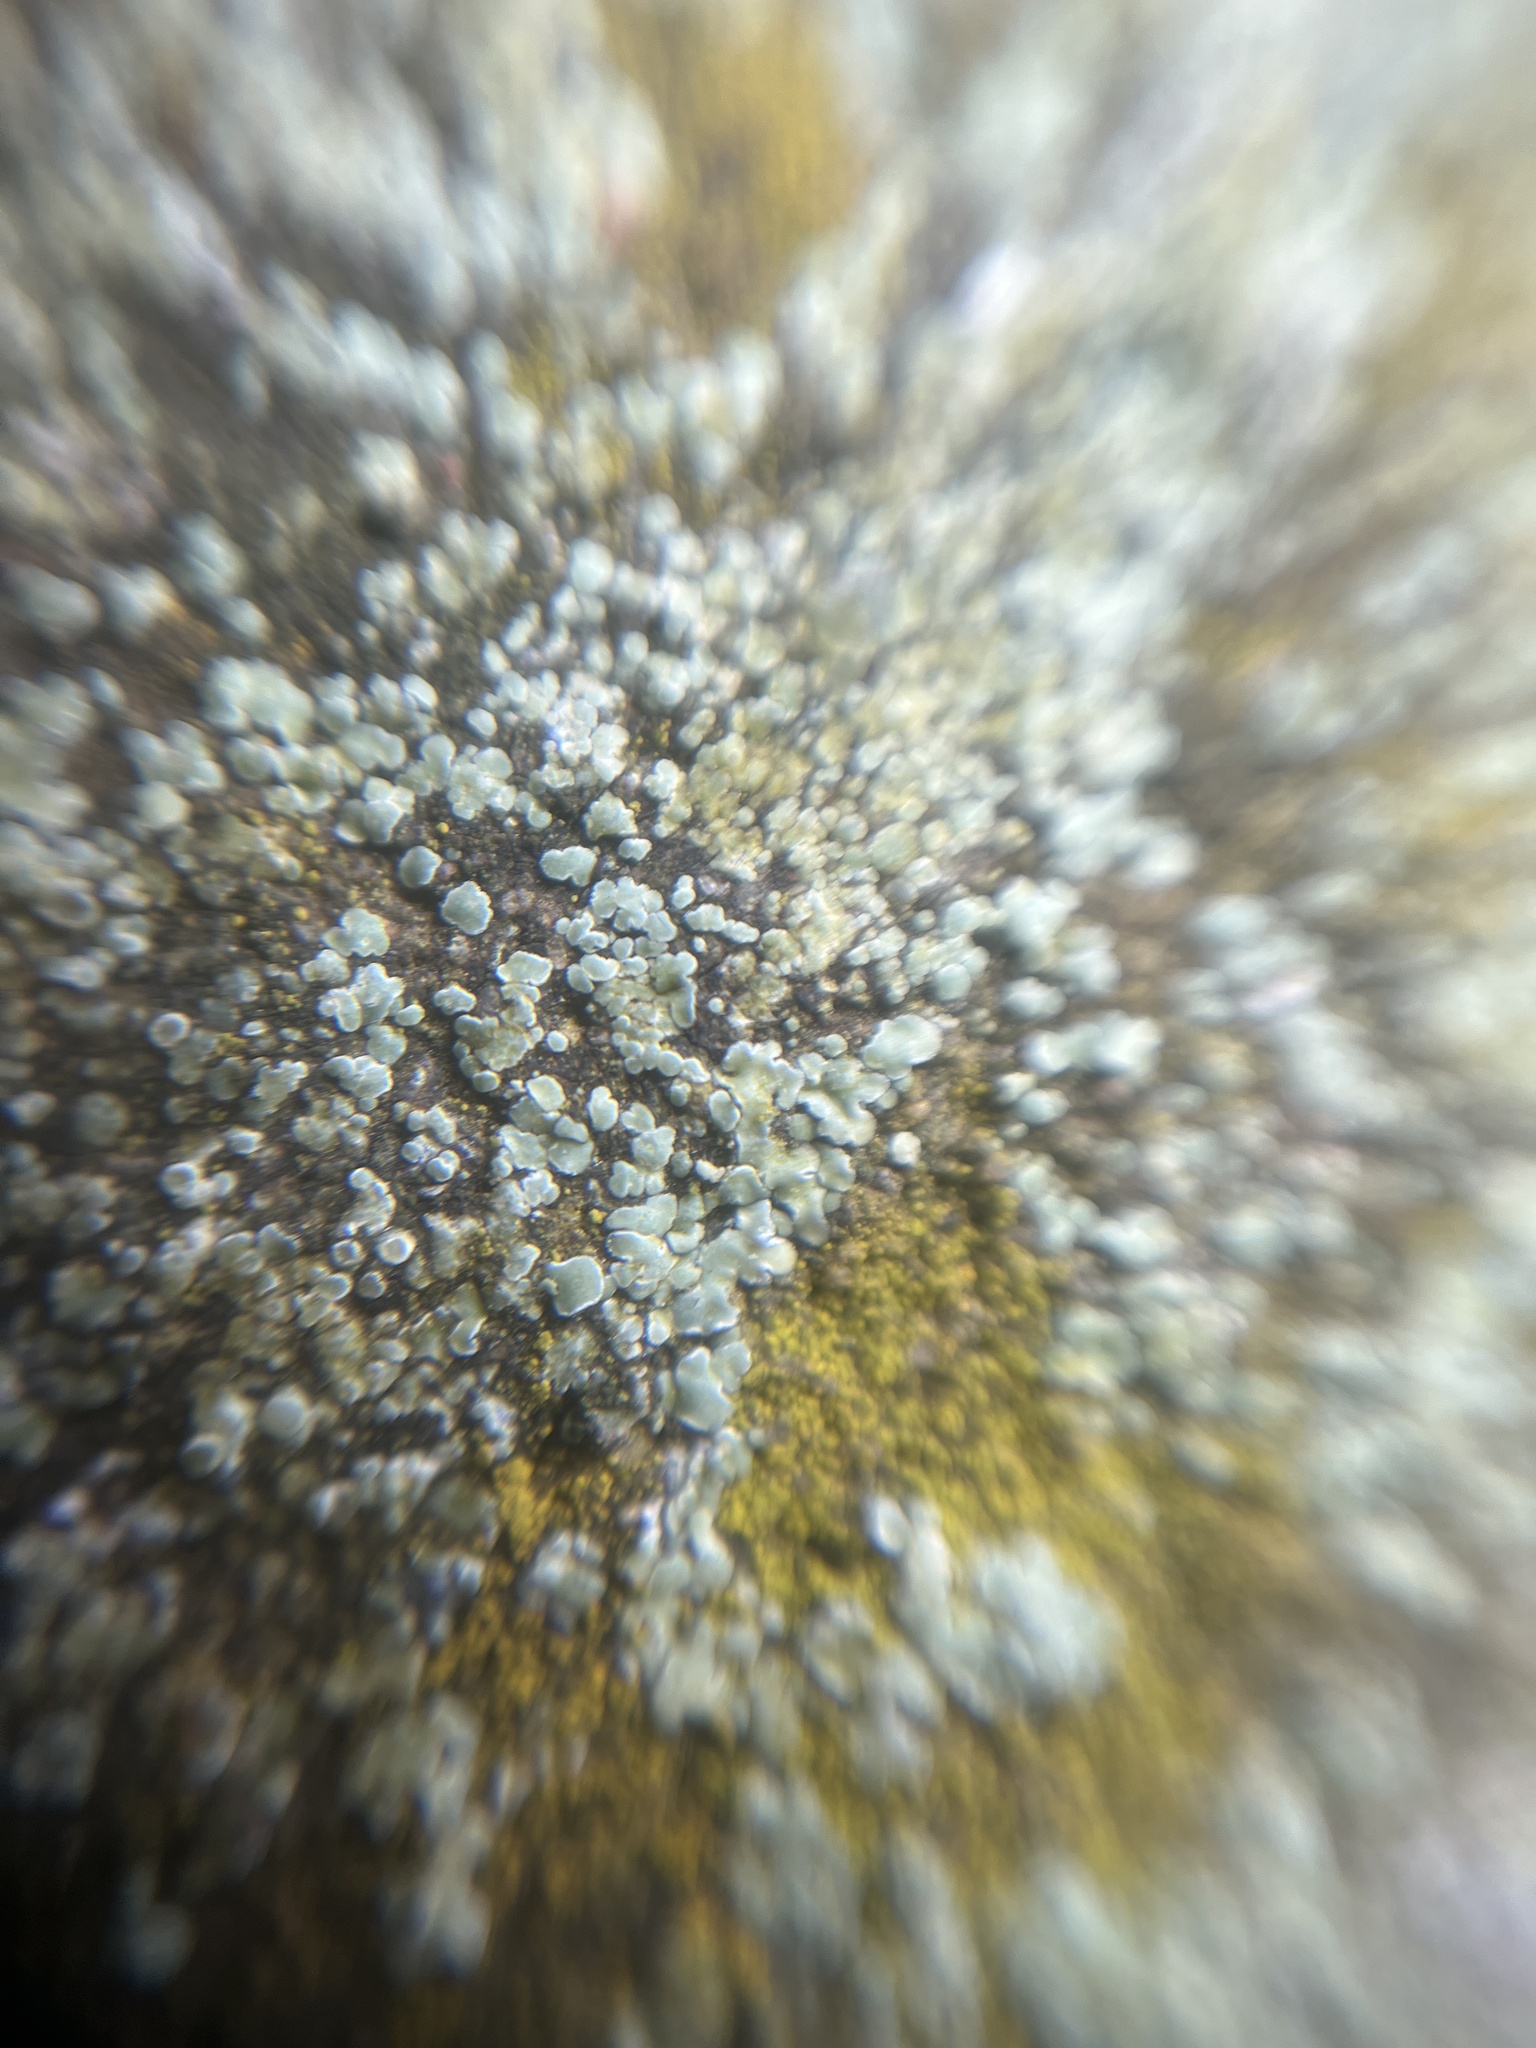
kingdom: Fungi
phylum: Ascomycota
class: Lecanoromycetes
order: Lecanorales
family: Lecanoraceae
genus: Protoparmeliopsis
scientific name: Protoparmeliopsis muralis
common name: Stonewall rim lichen
